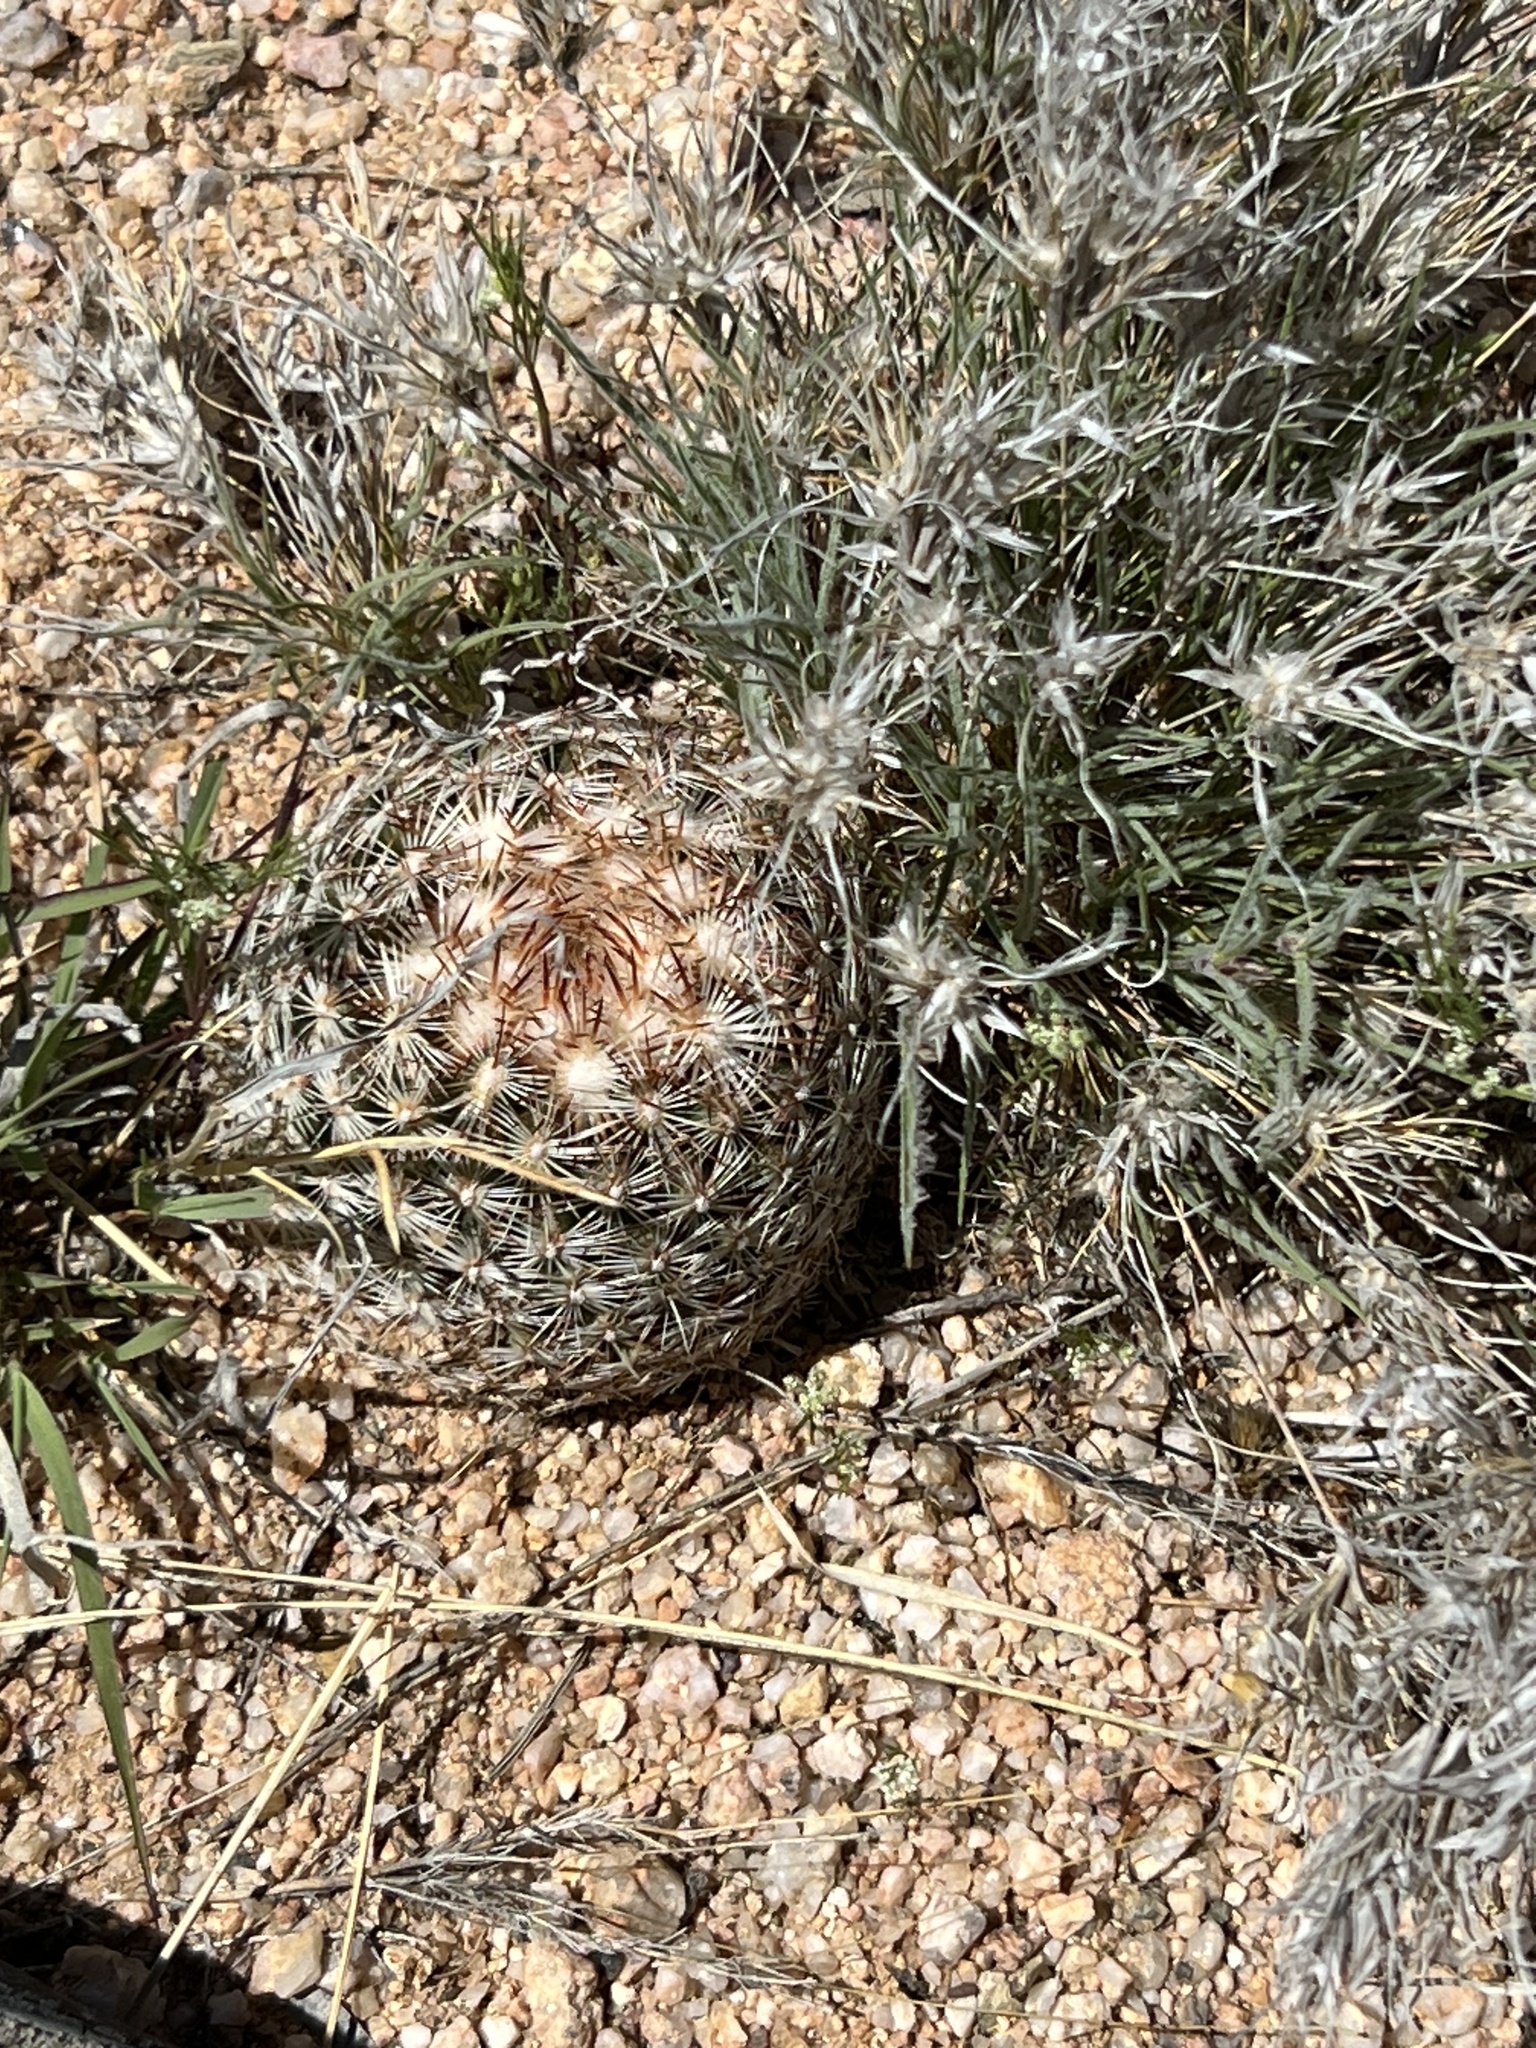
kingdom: Plantae
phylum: Tracheophyta
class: Magnoliopsida
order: Caryophyllales
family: Cactaceae
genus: Sclerocactus
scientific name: Sclerocactus johnsonii
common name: Eight-spine fishhook cactus
